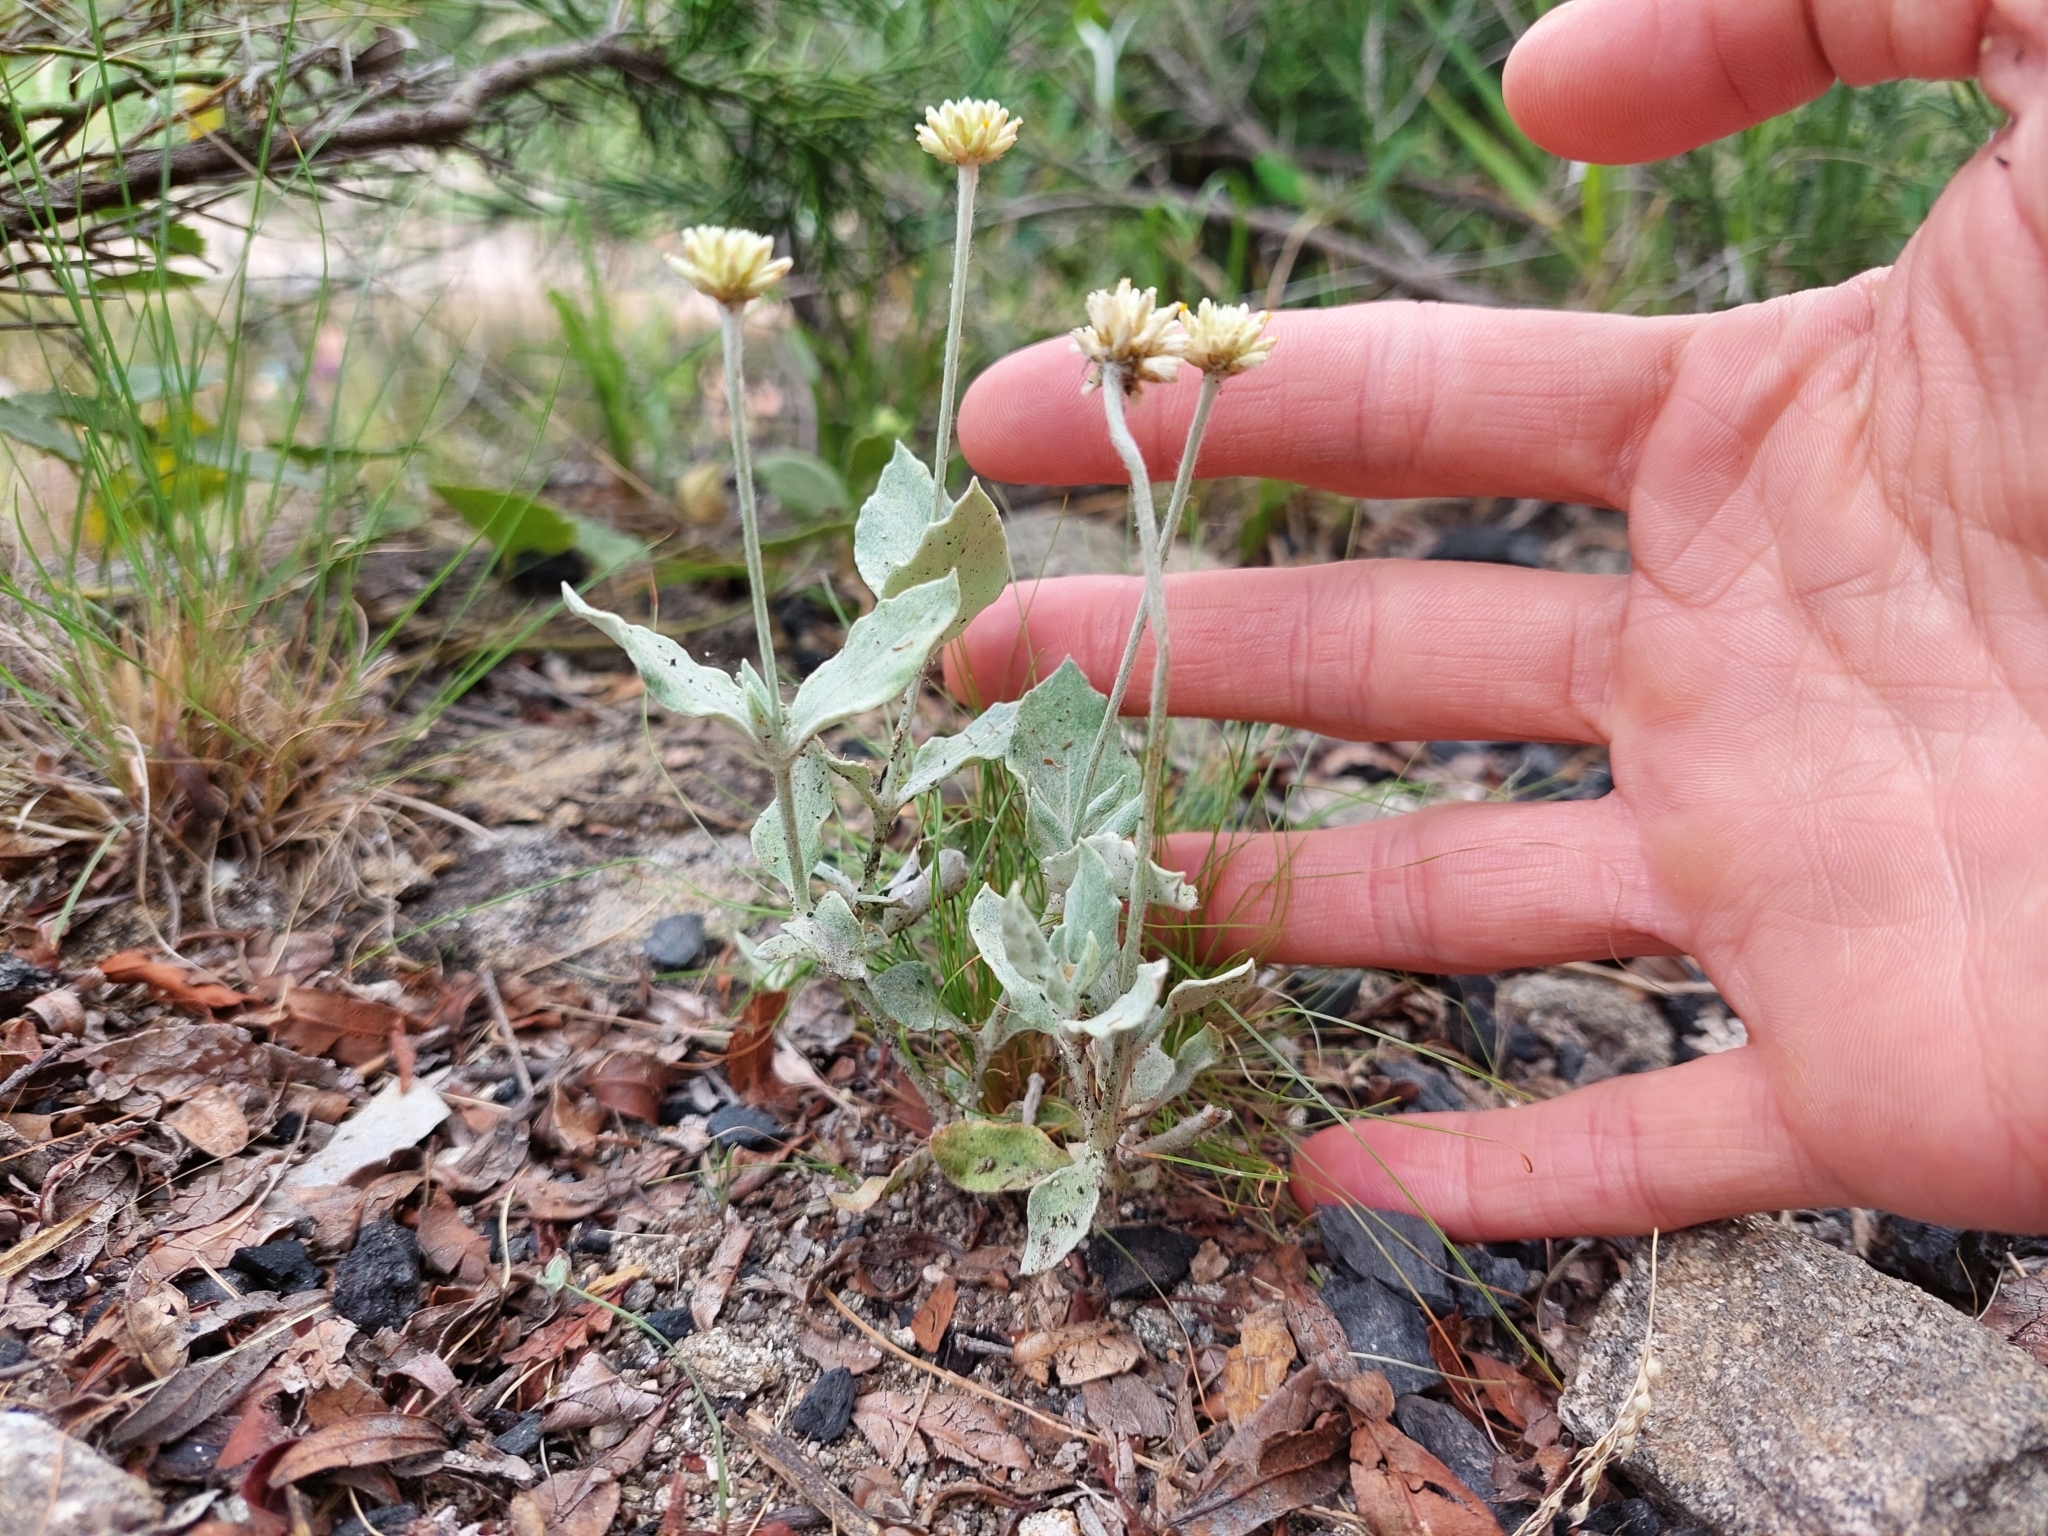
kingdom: Plantae
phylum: Tracheophyta
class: Magnoliopsida
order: Caryophyllales
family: Amaranthaceae
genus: Pfaffia
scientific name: Pfaffia gnaphalioides
